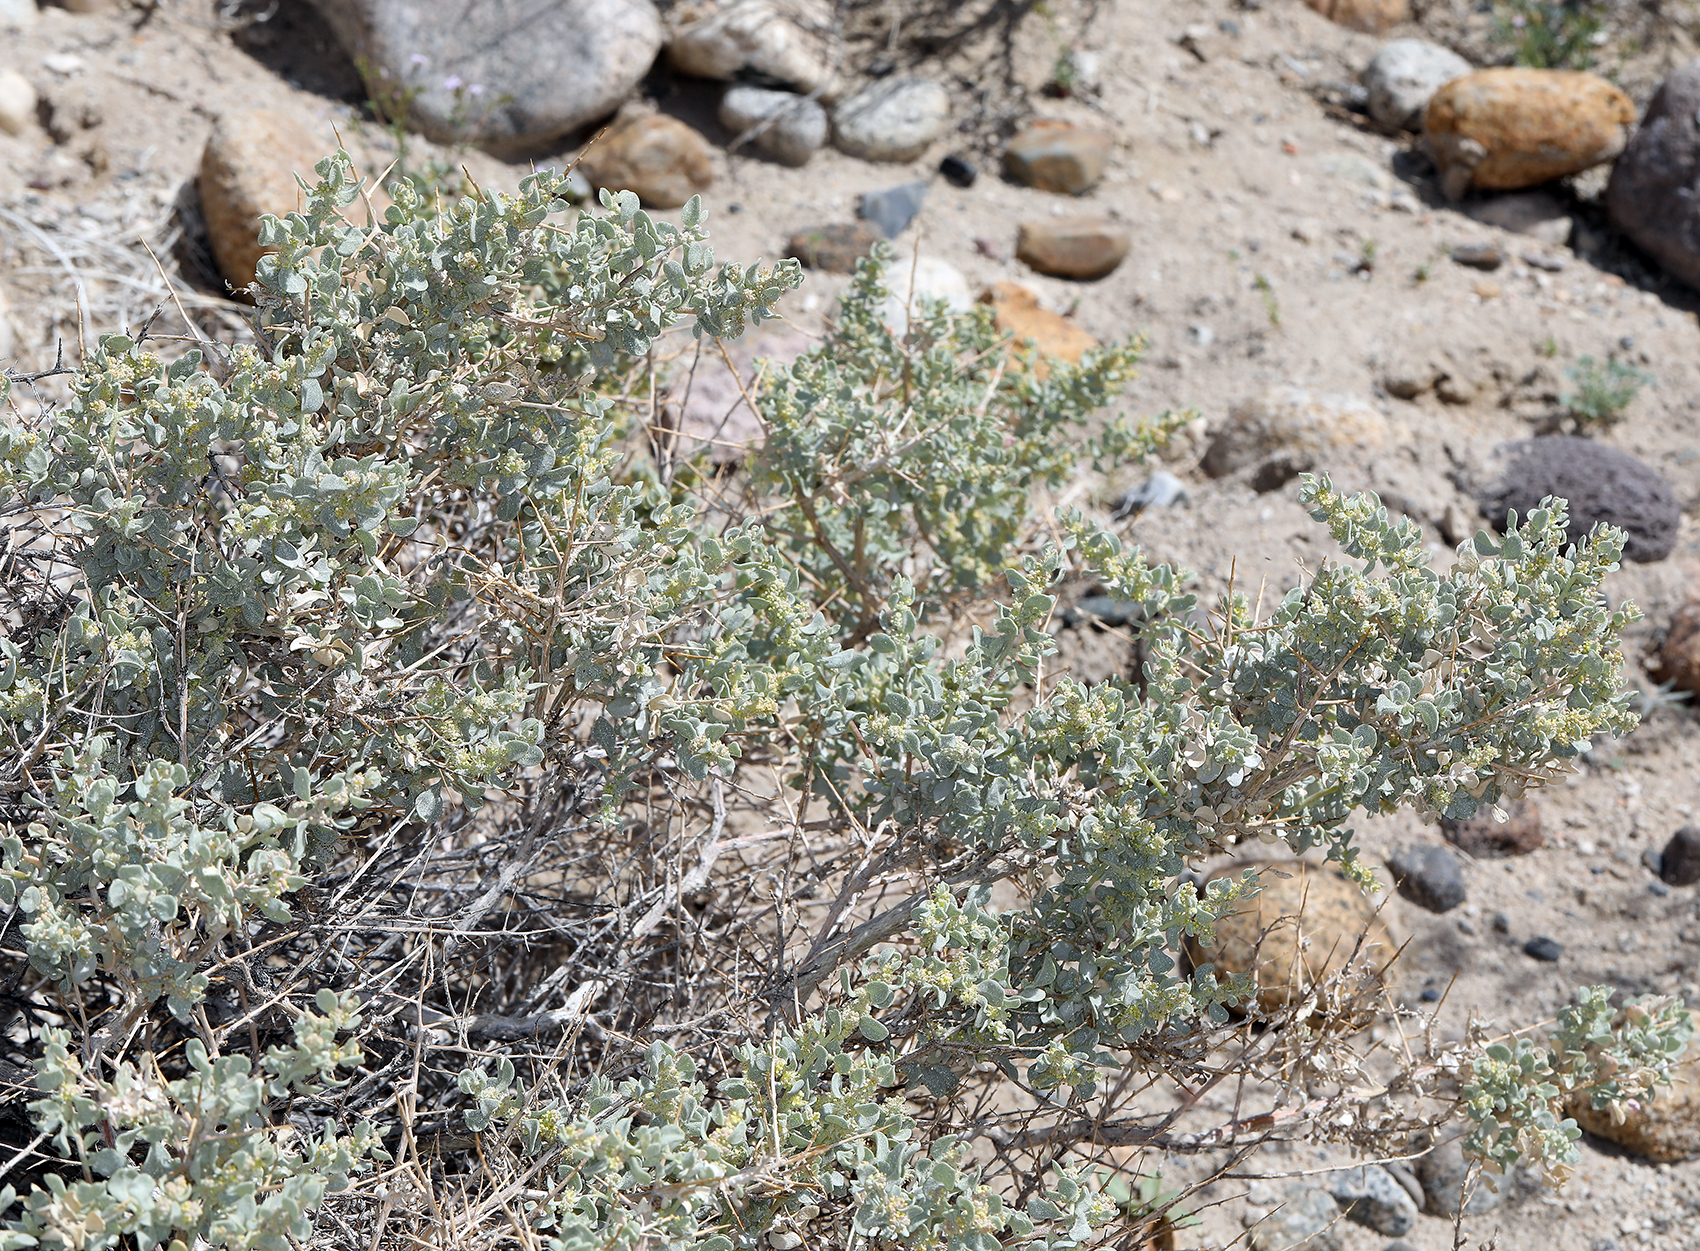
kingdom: Plantae
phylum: Tracheophyta
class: Magnoliopsida
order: Caryophyllales
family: Amaranthaceae
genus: Atriplex
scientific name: Atriplex confertifolia
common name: Shadscale
